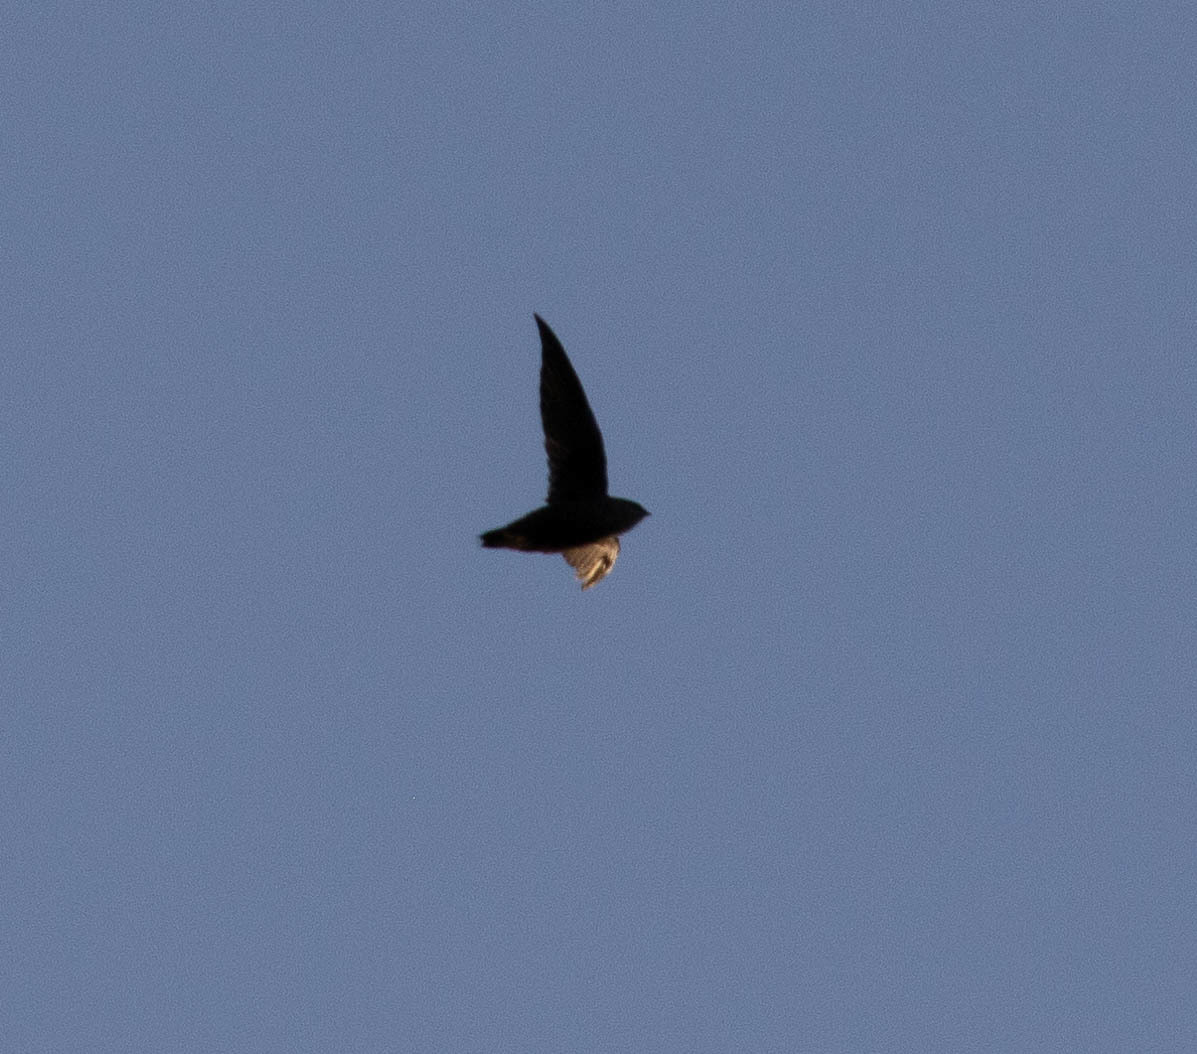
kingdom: Animalia
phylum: Chordata
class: Aves
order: Apodiformes
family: Apodidae
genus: Chaetura
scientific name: Chaetura pelagica
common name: Chimney swift
